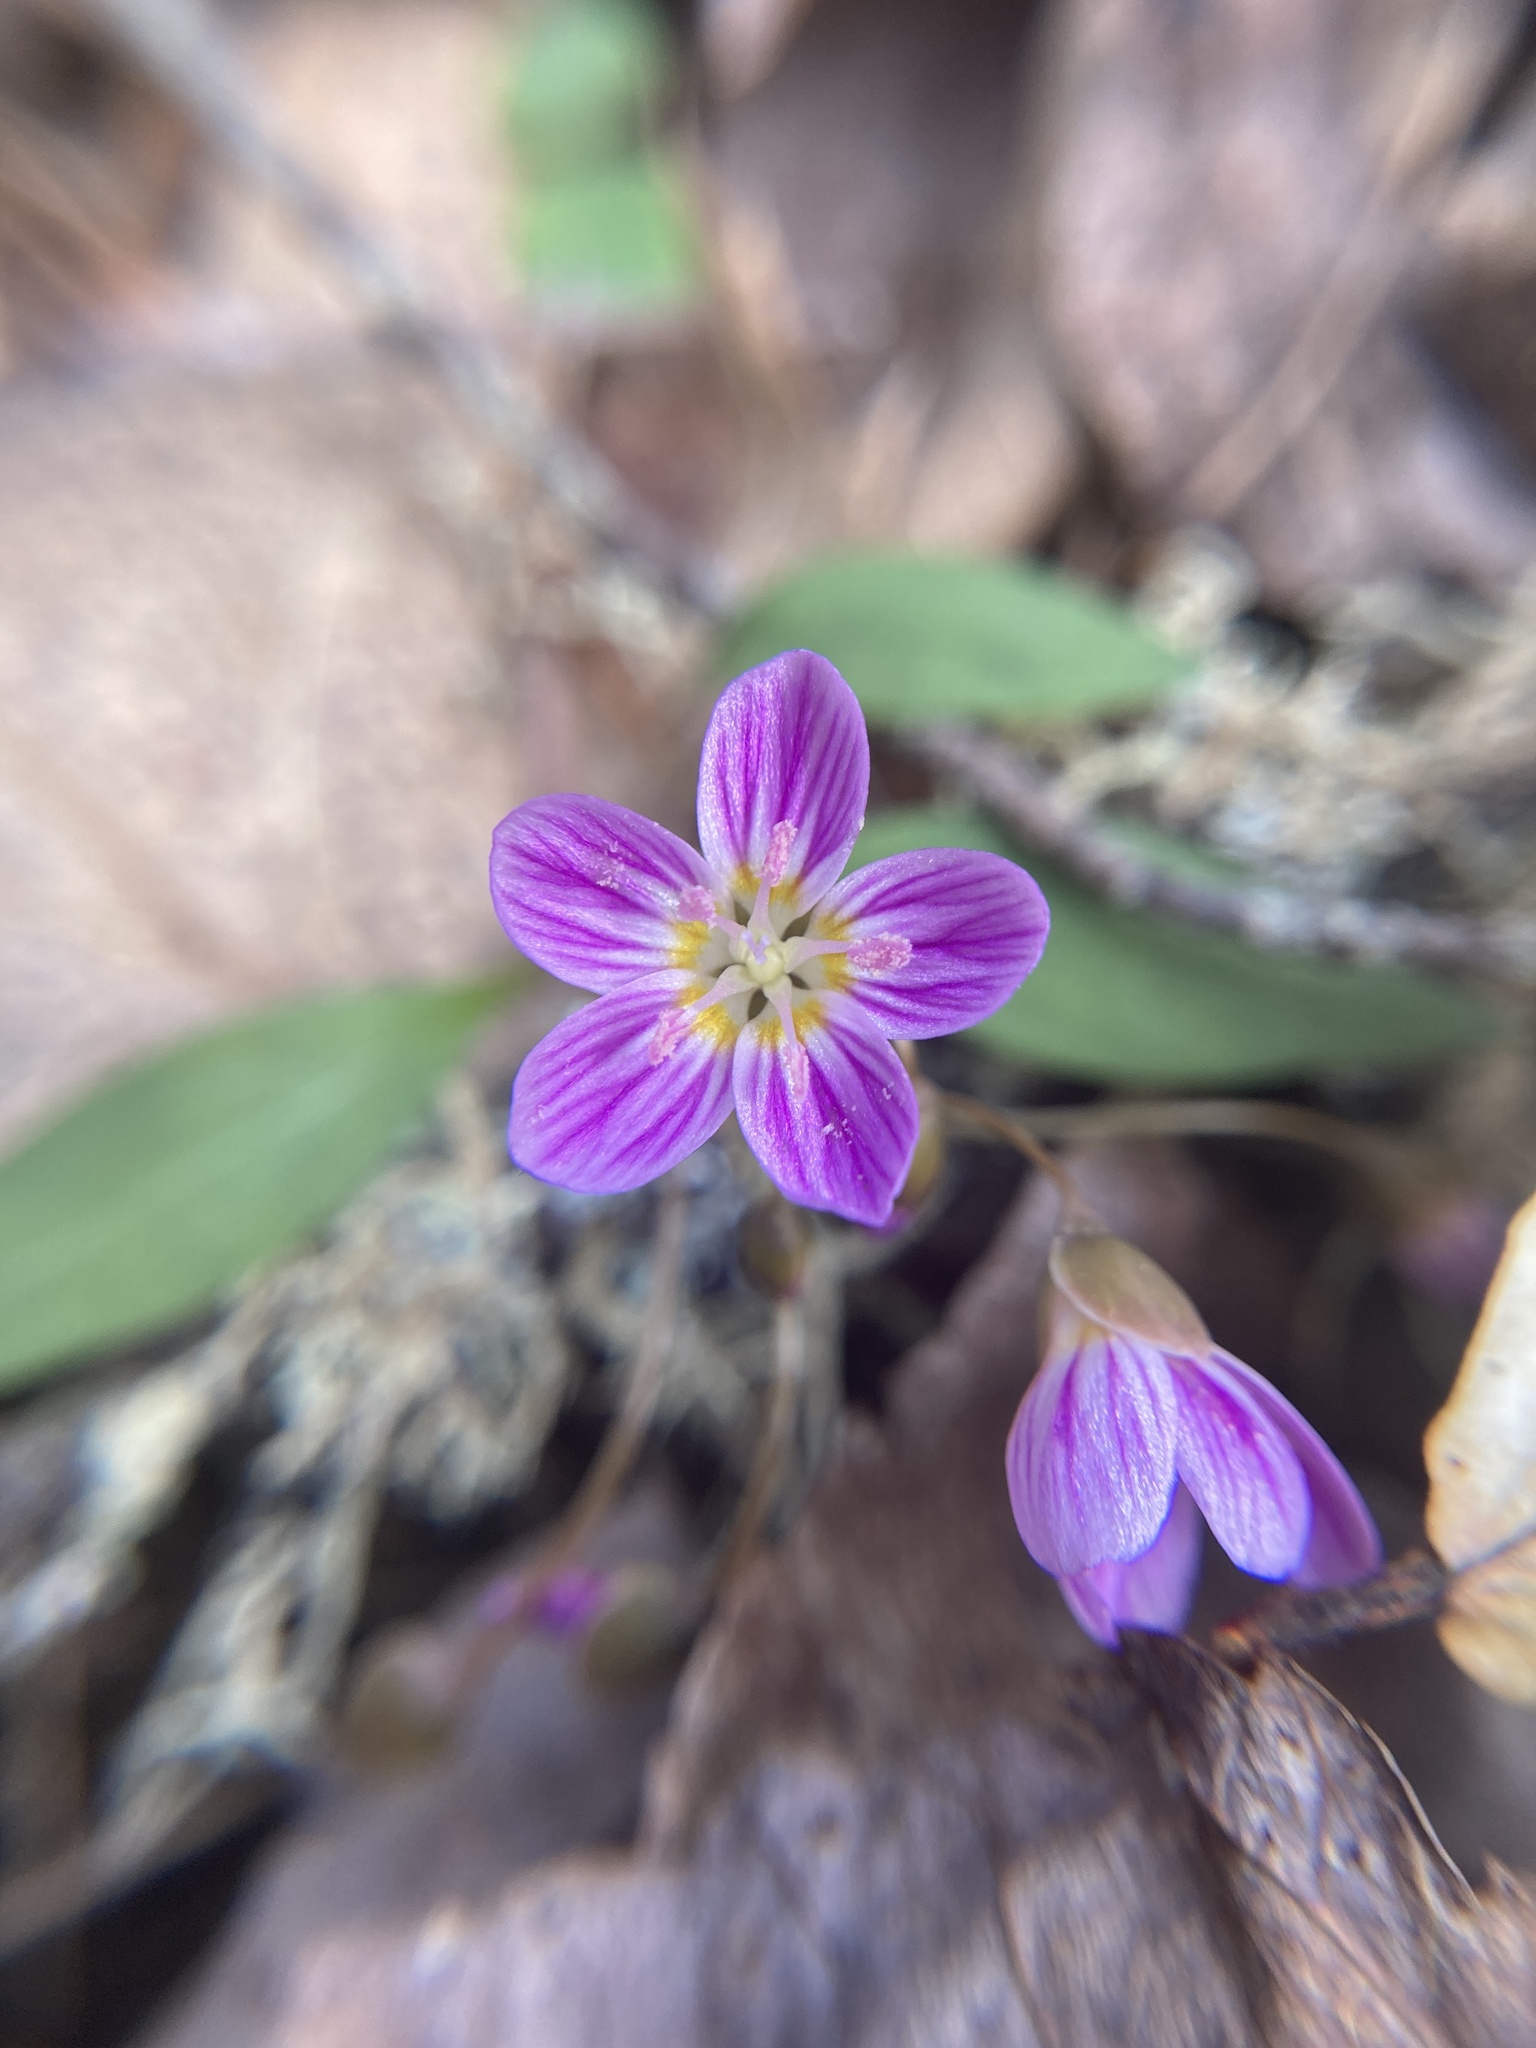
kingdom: Plantae
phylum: Tracheophyta
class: Magnoliopsida
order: Caryophyllales
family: Montiaceae
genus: Claytonia
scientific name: Claytonia caroliniana
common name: Carolina spring beauty
